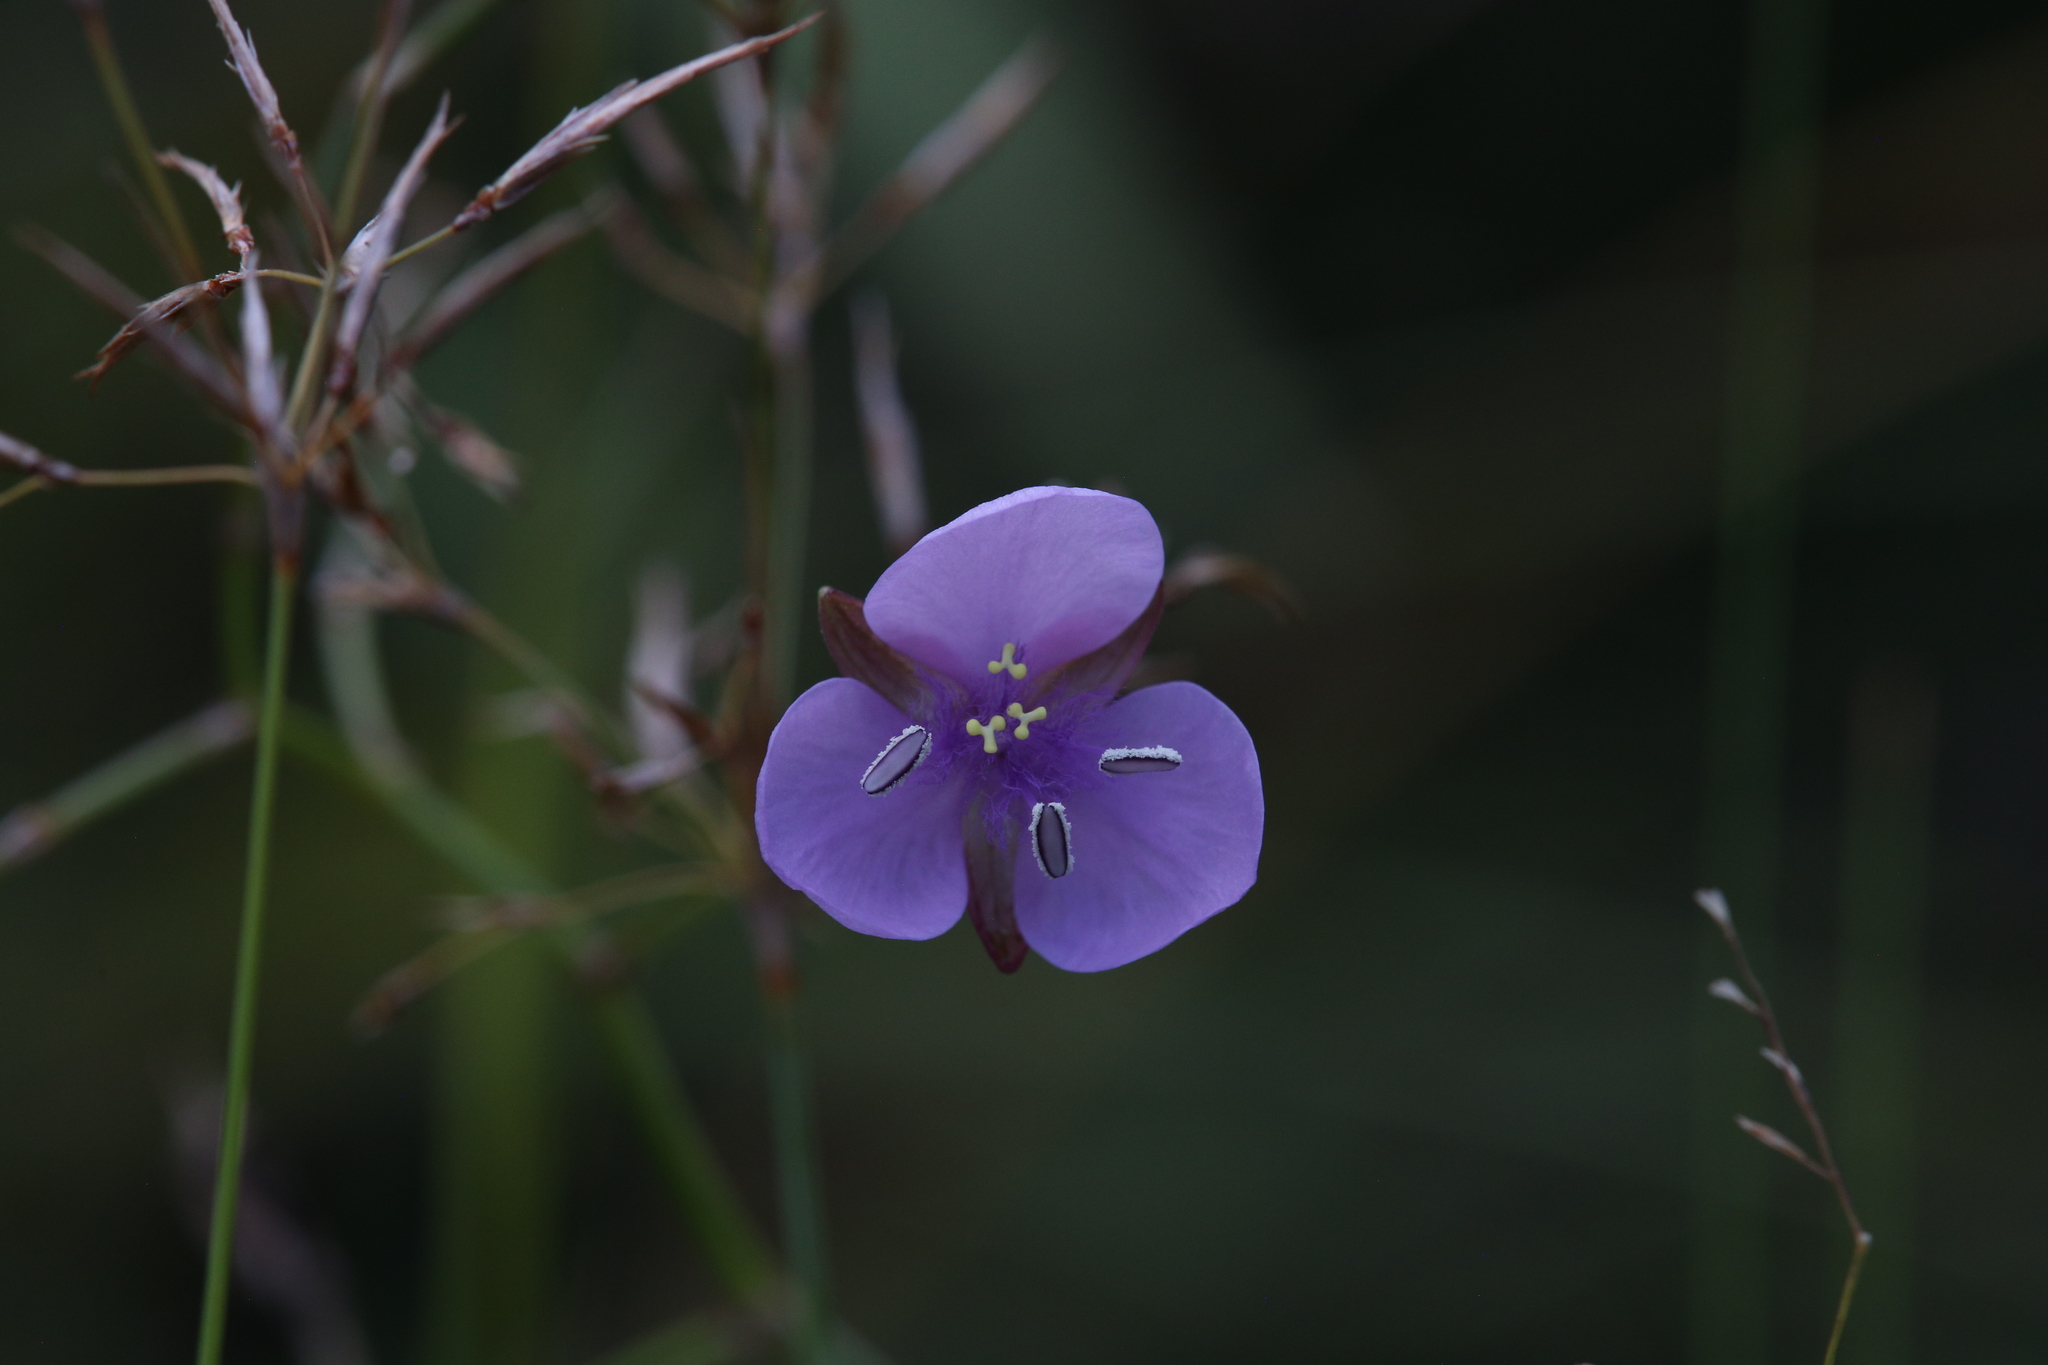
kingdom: Plantae
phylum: Tracheophyta
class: Liliopsida
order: Commelinales
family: Commelinaceae
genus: Murdannia
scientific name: Murdannia graminea
